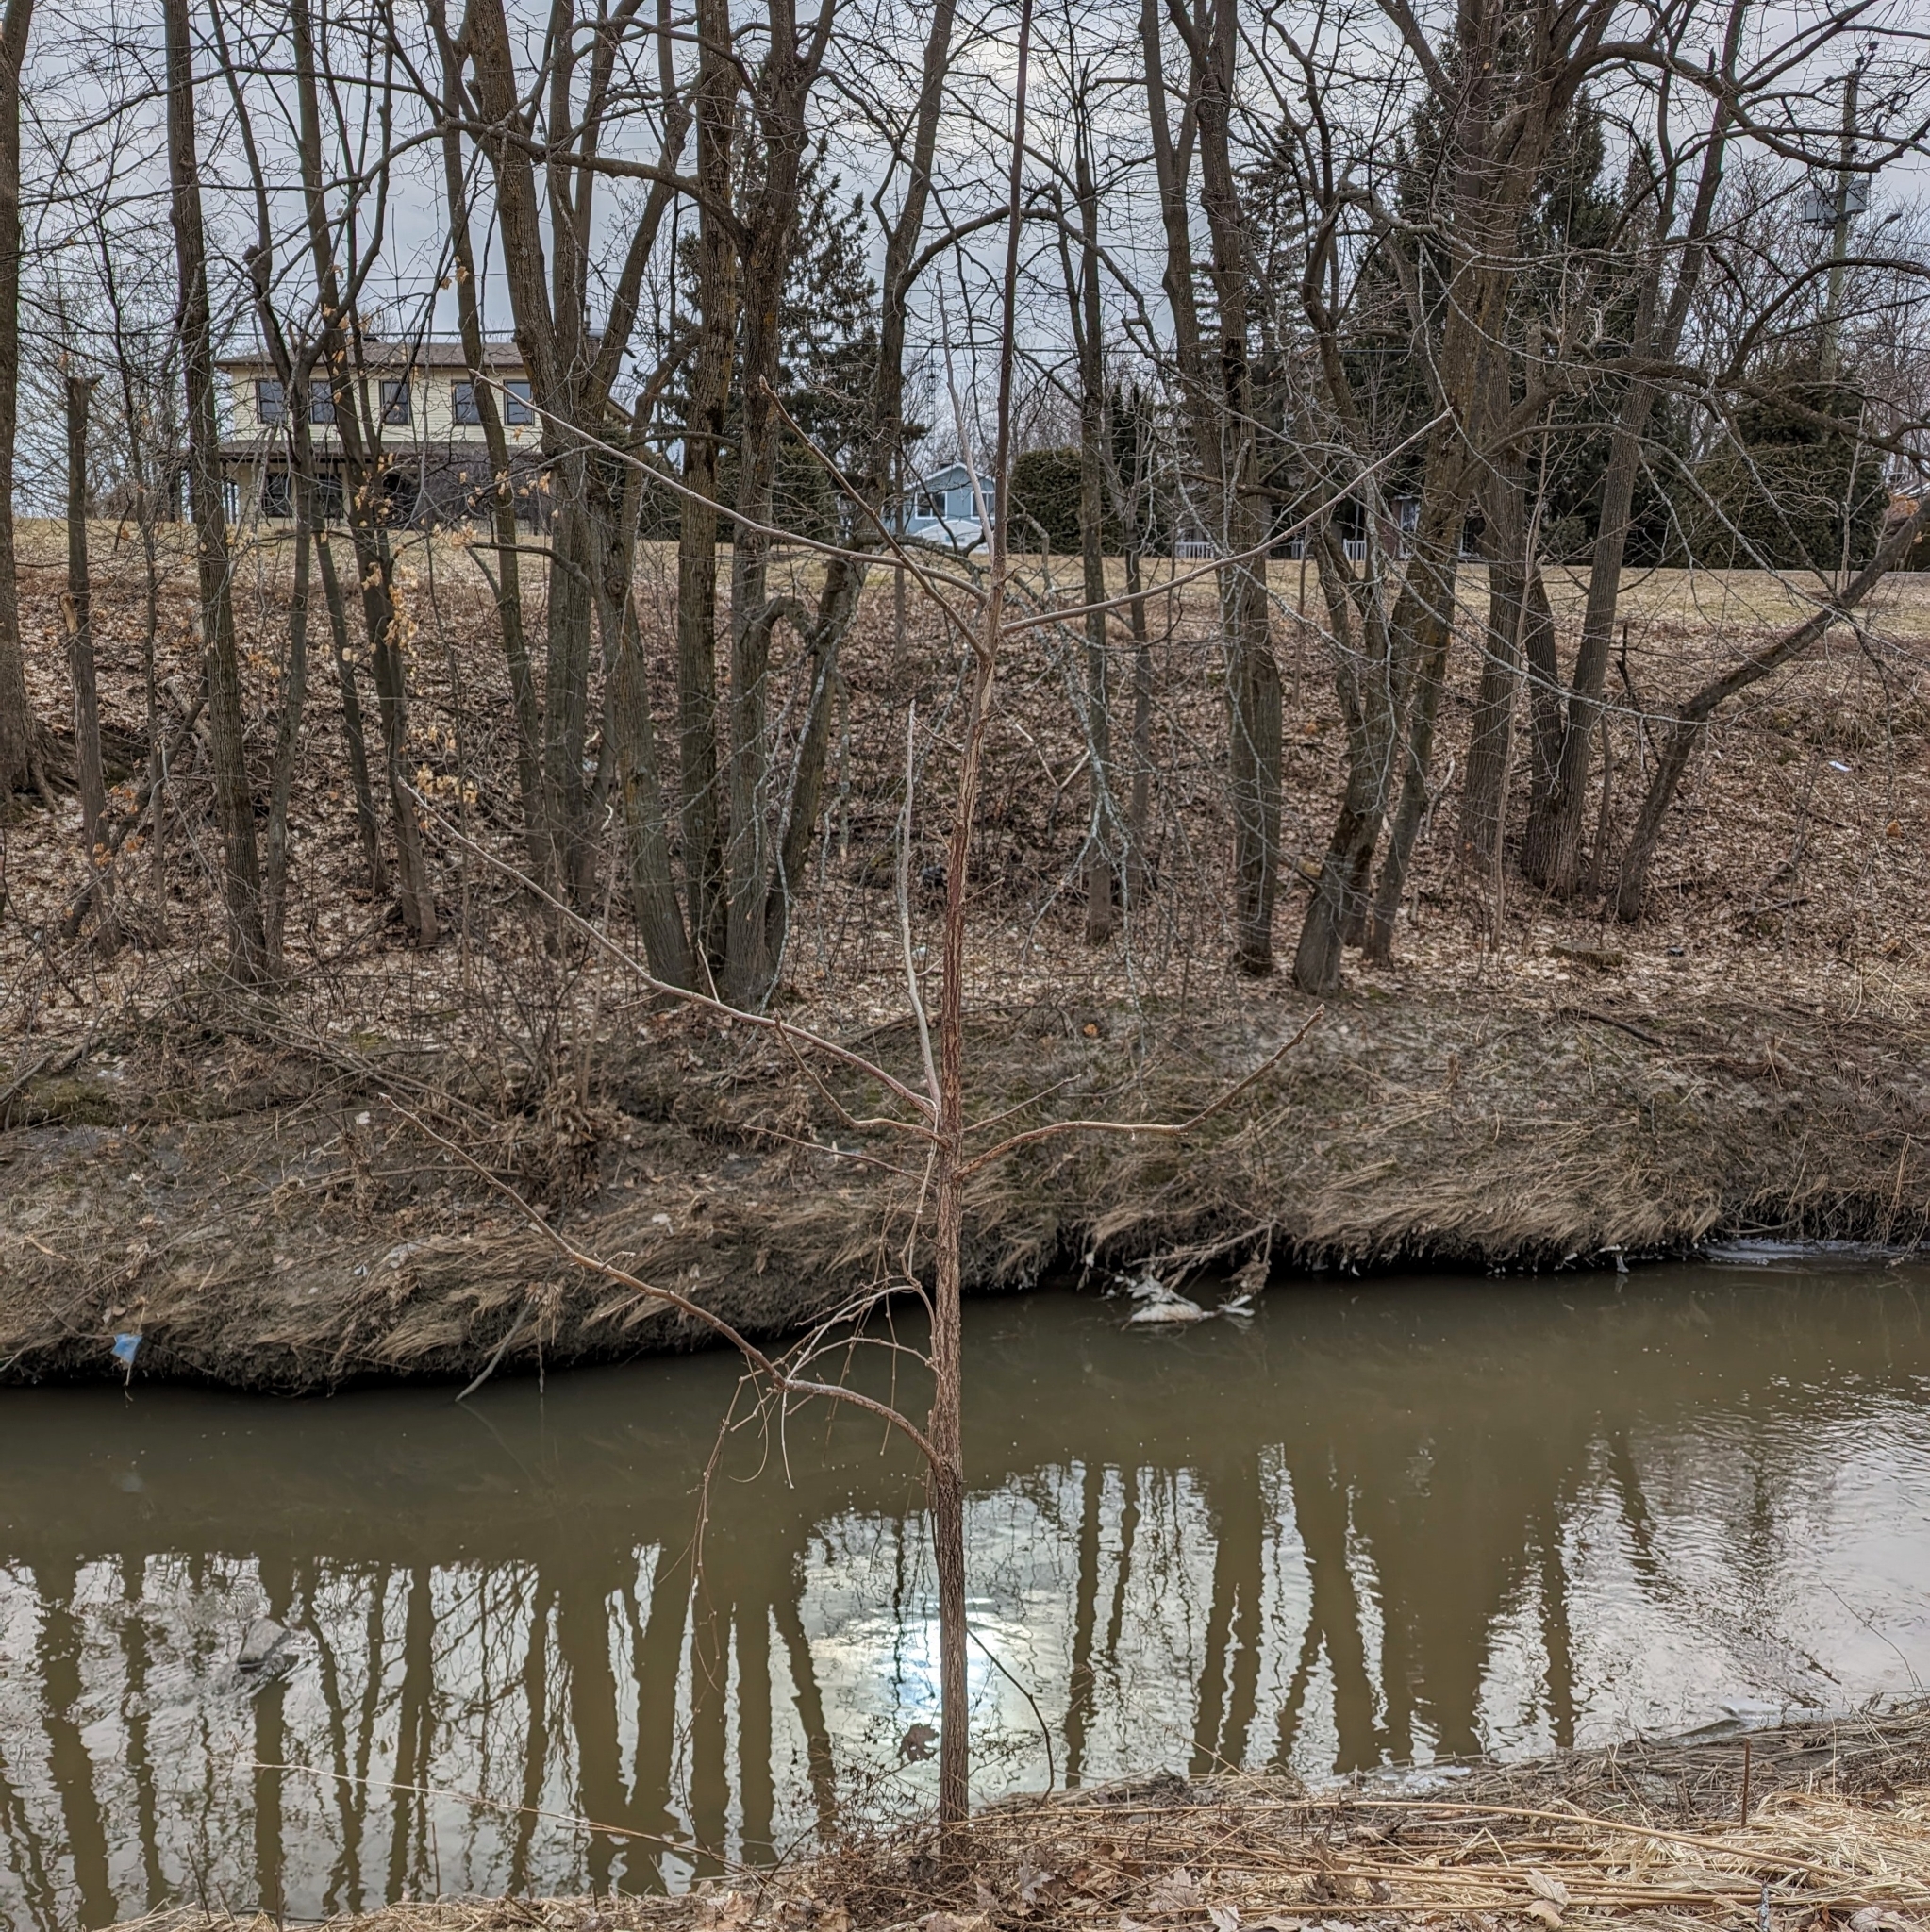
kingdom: Plantae
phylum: Tracheophyta
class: Magnoliopsida
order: Fagales
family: Juglandaceae
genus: Juglans
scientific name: Juglans nigra
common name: Black walnut
